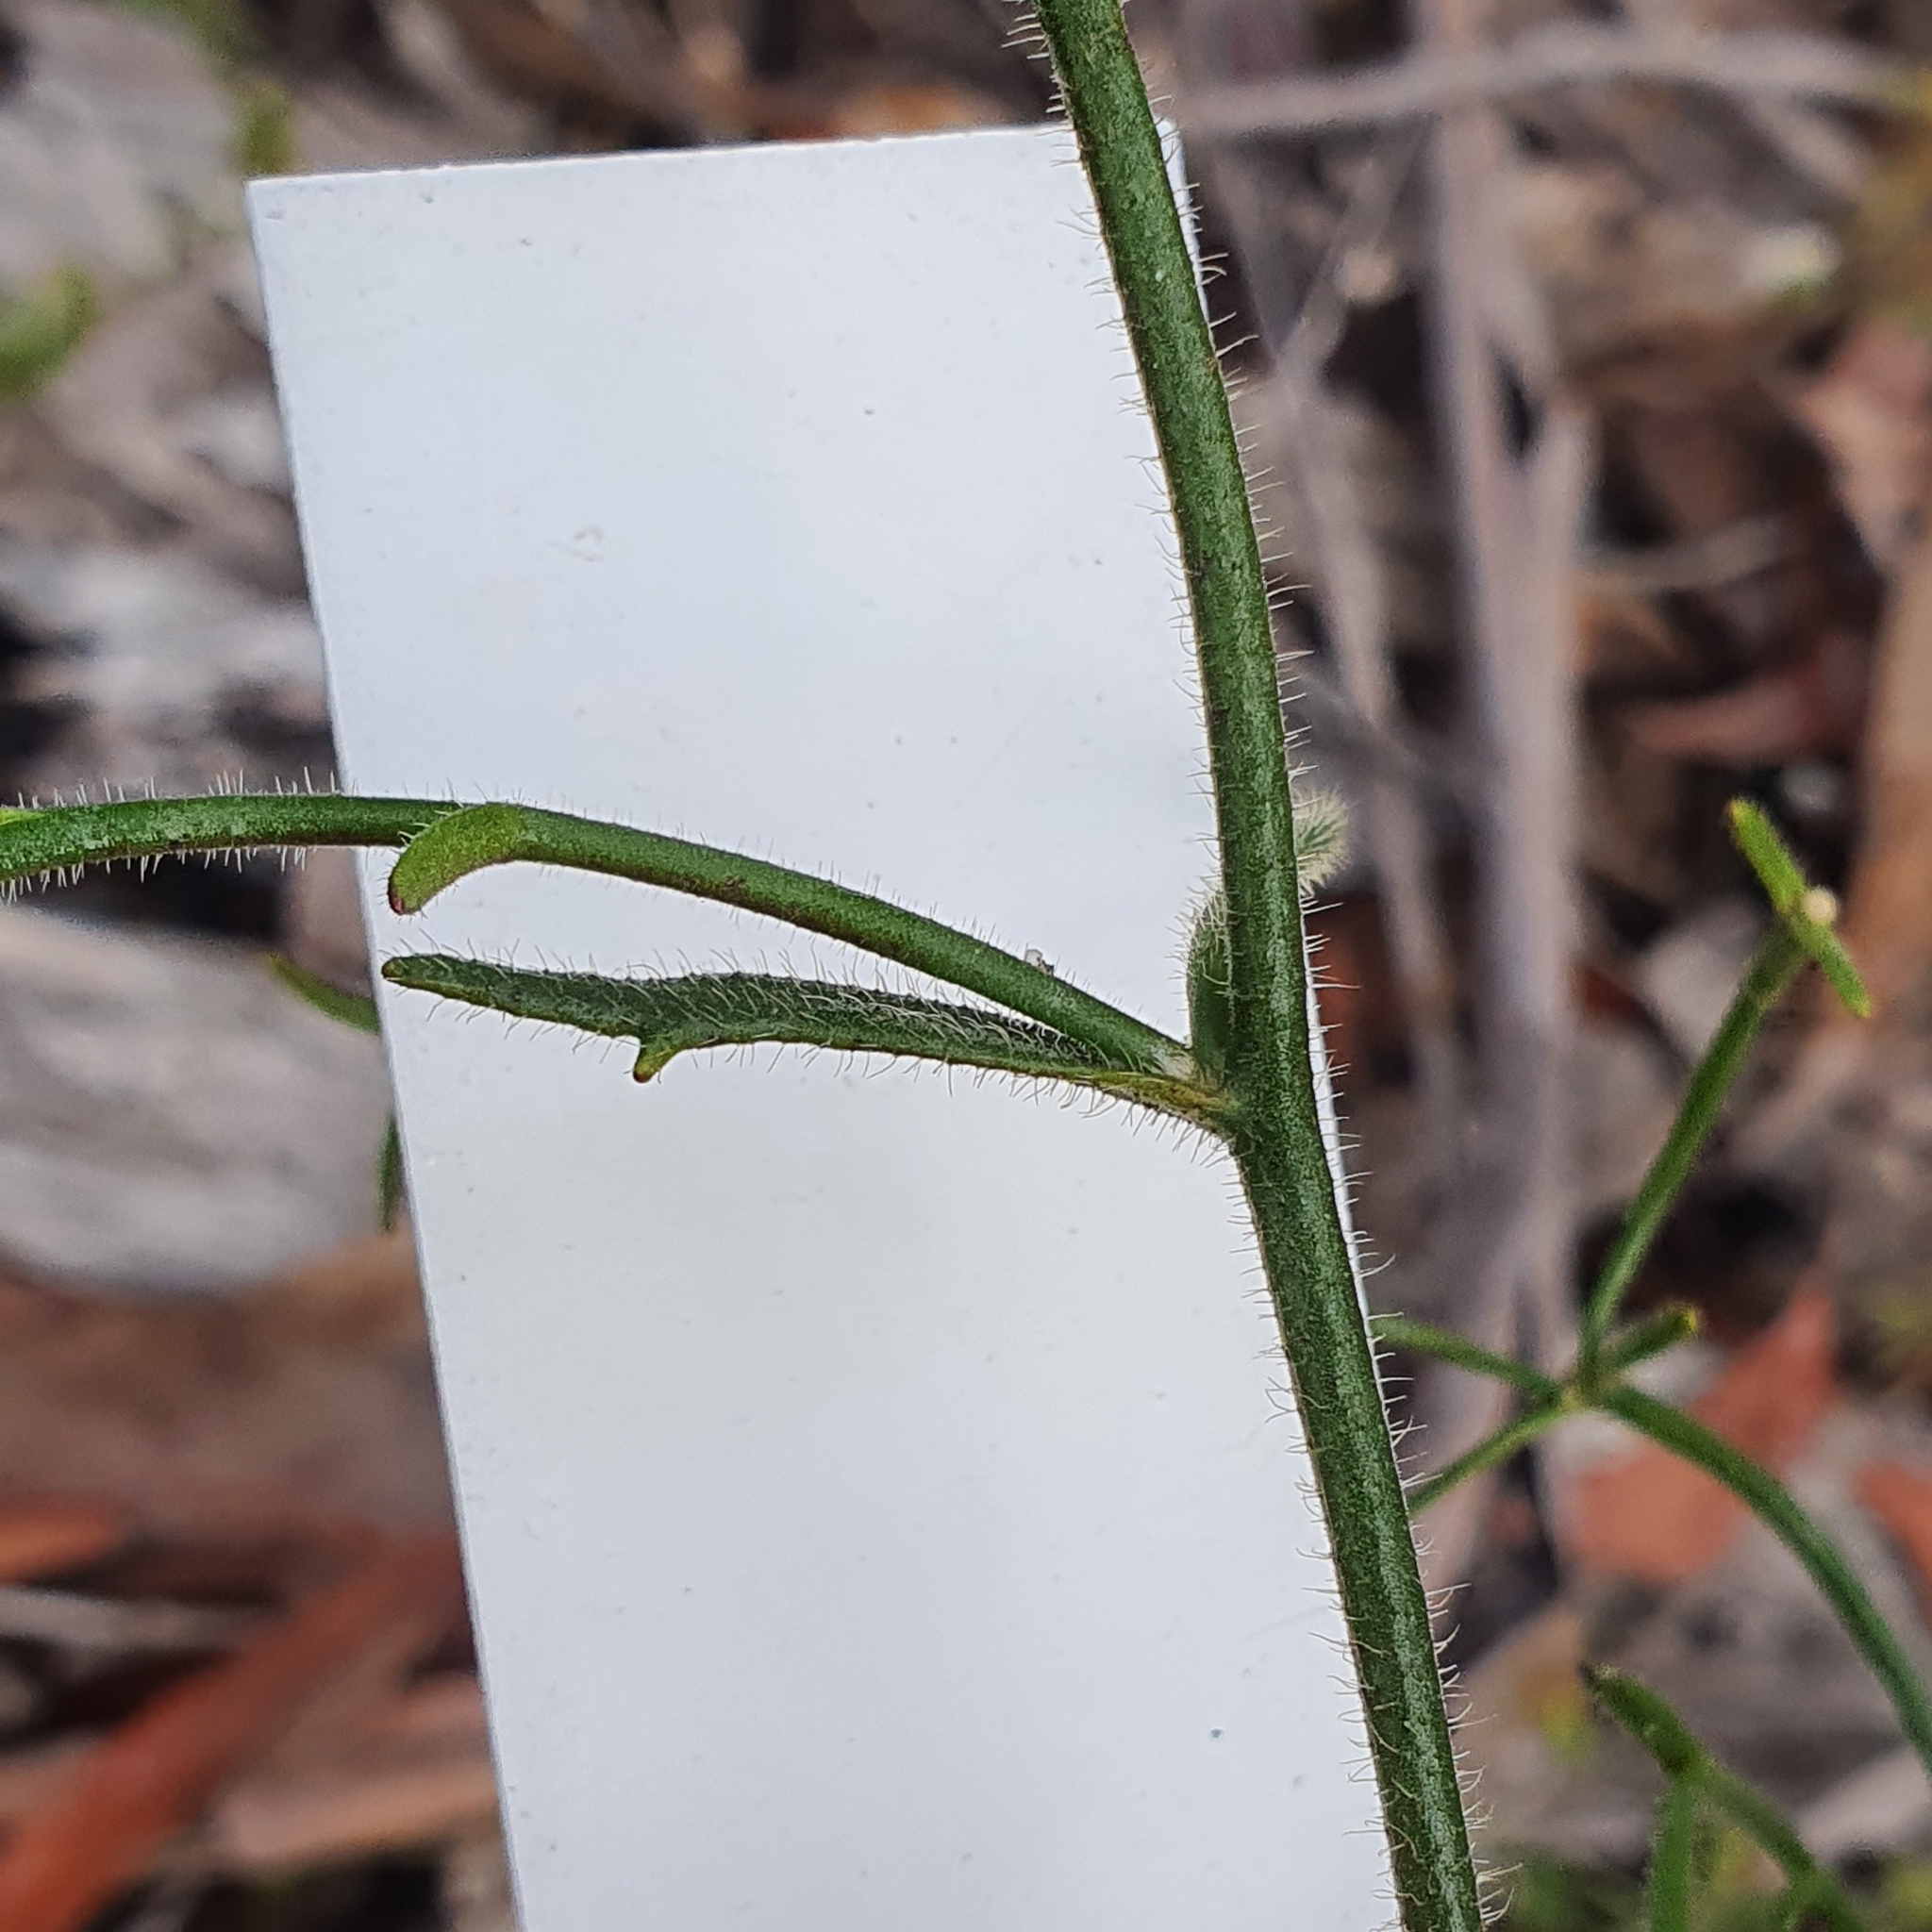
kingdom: Plantae
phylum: Tracheophyta
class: Magnoliopsida
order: Asterales
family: Goodeniaceae
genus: Scaevola
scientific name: Scaevola ramosissima
